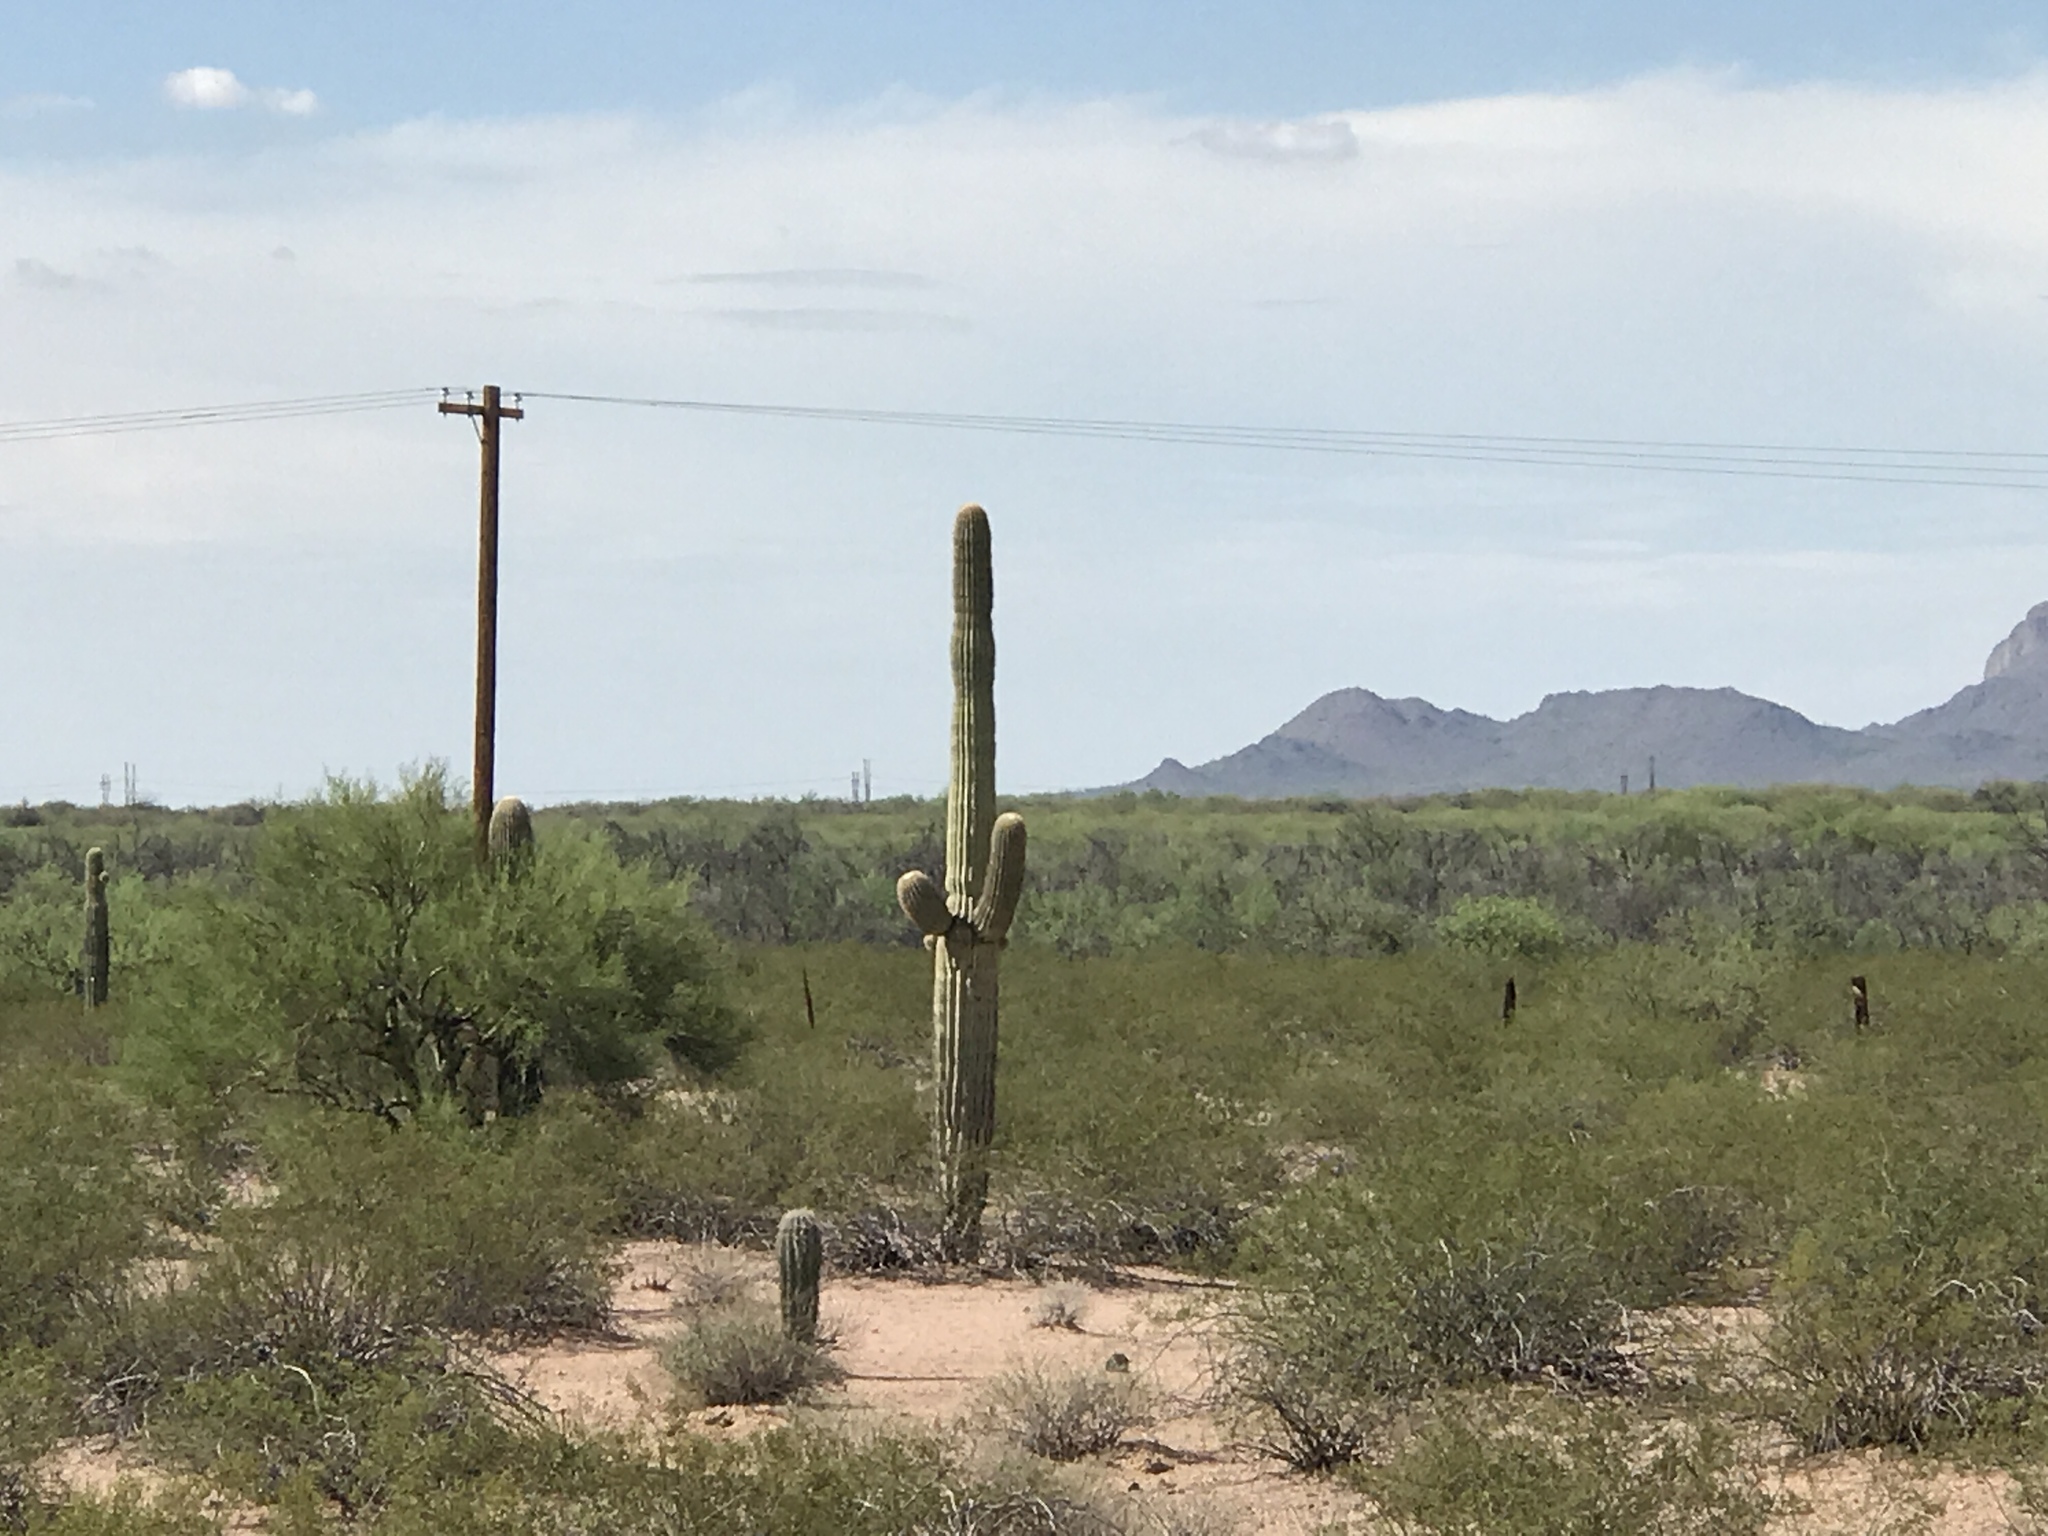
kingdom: Plantae
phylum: Tracheophyta
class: Magnoliopsida
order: Caryophyllales
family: Cactaceae
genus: Carnegiea
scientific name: Carnegiea gigantea
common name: Saguaro
